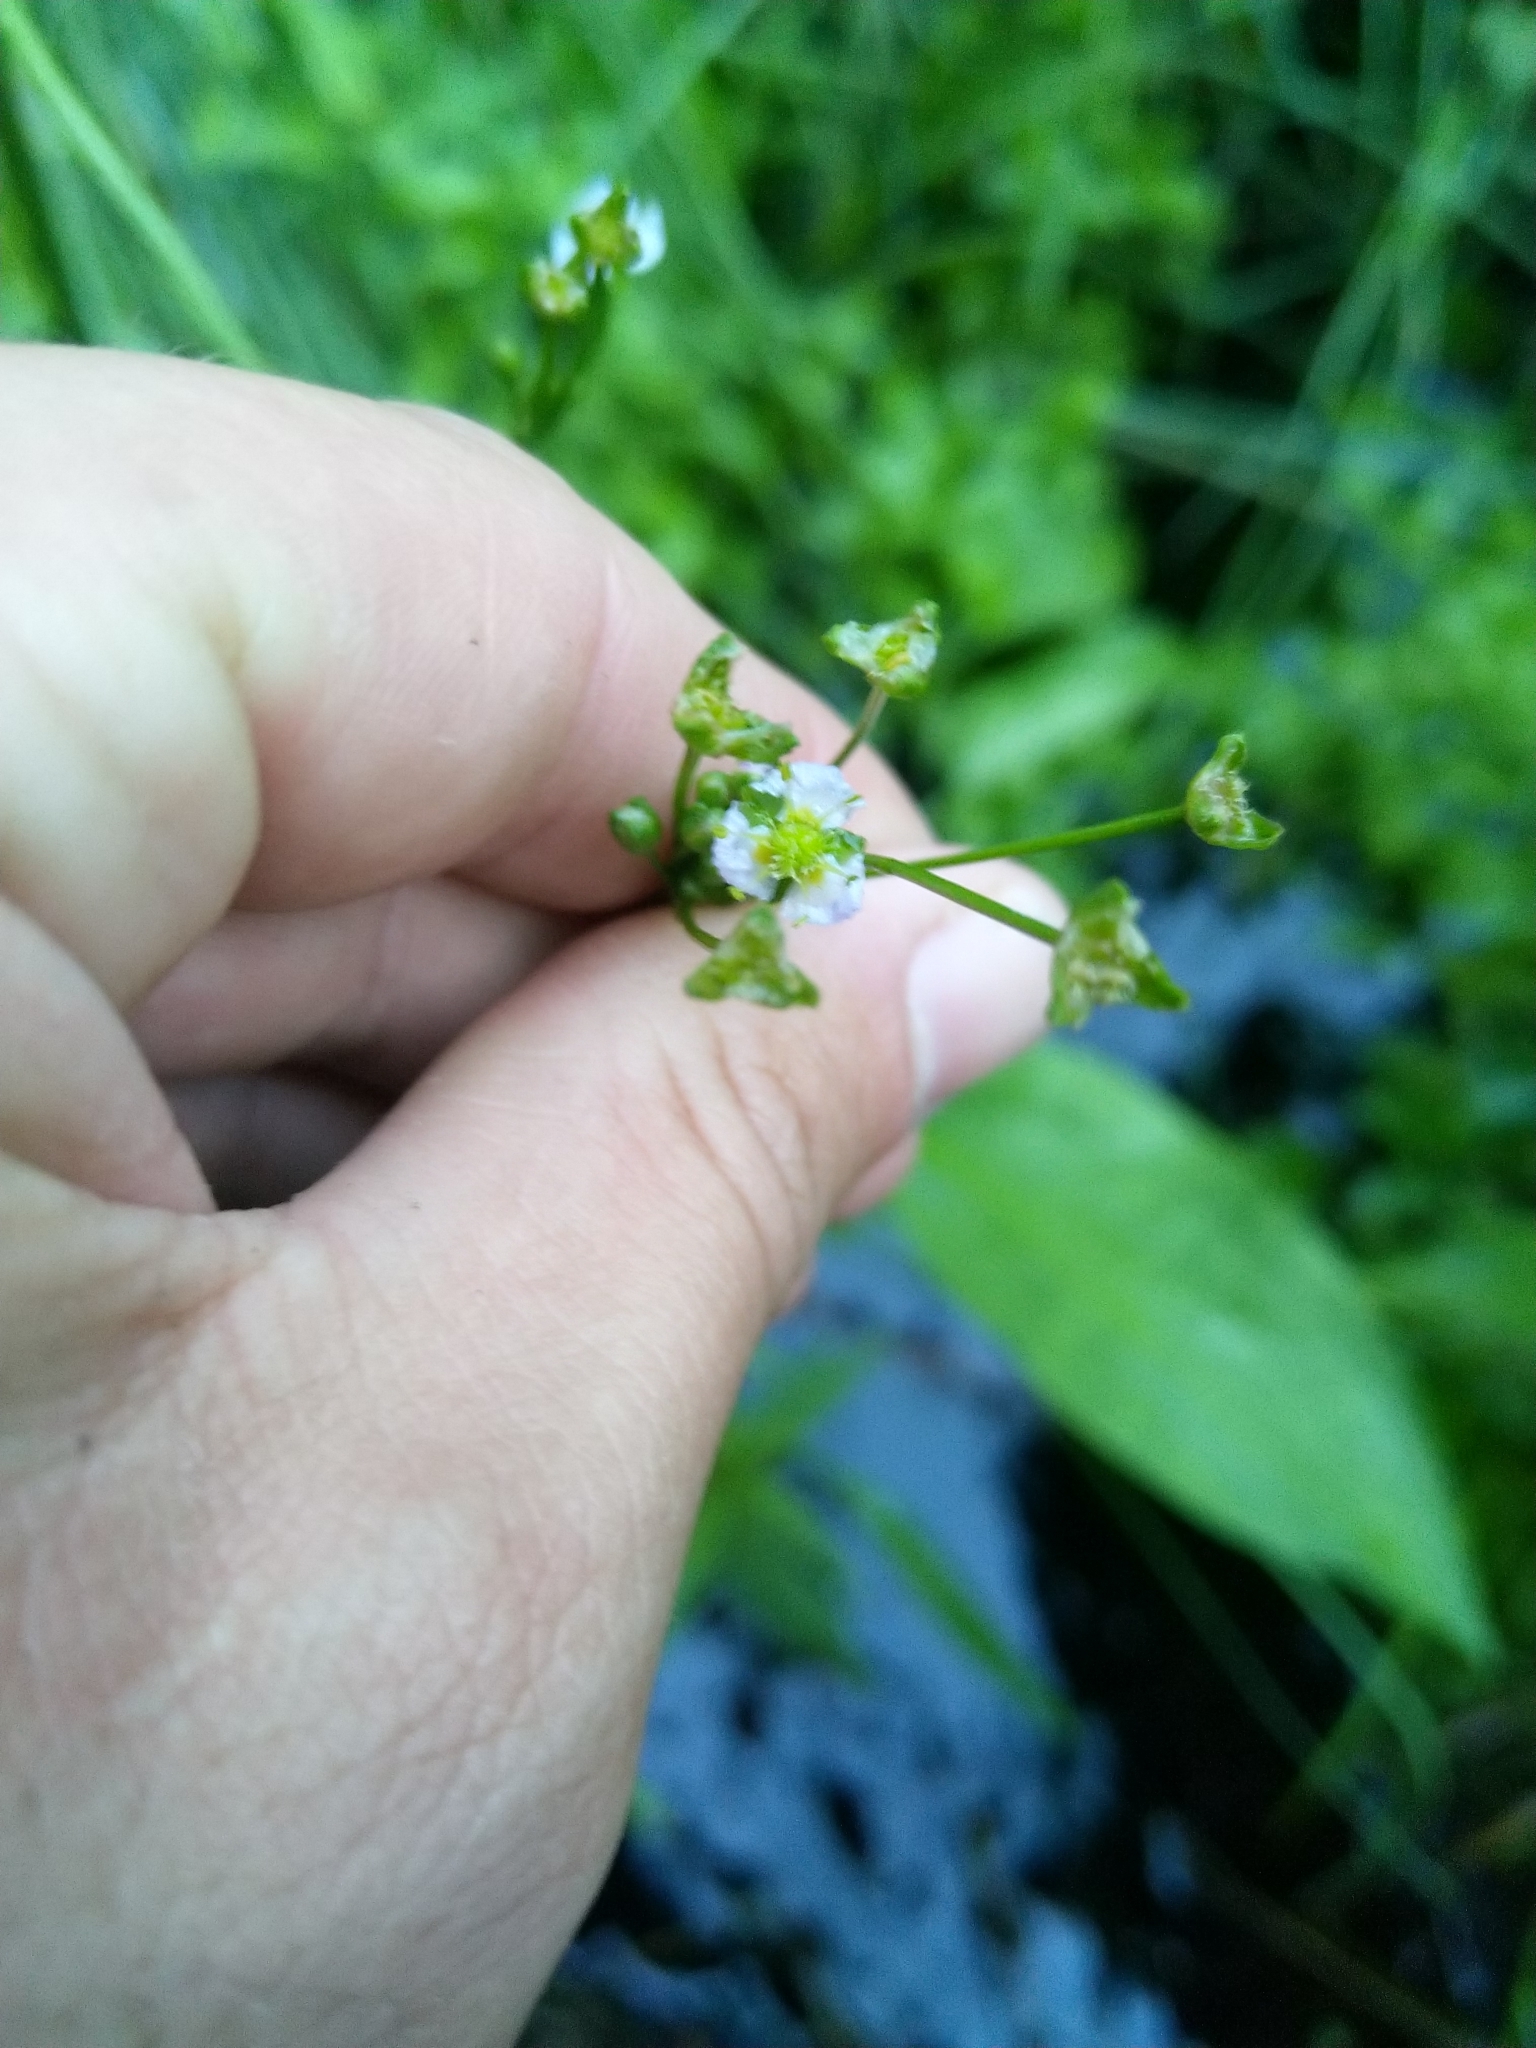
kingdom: Plantae
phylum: Tracheophyta
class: Liliopsida
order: Alismatales
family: Alismataceae
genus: Alisma
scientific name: Alisma plantago-aquatica
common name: Water-plantain
